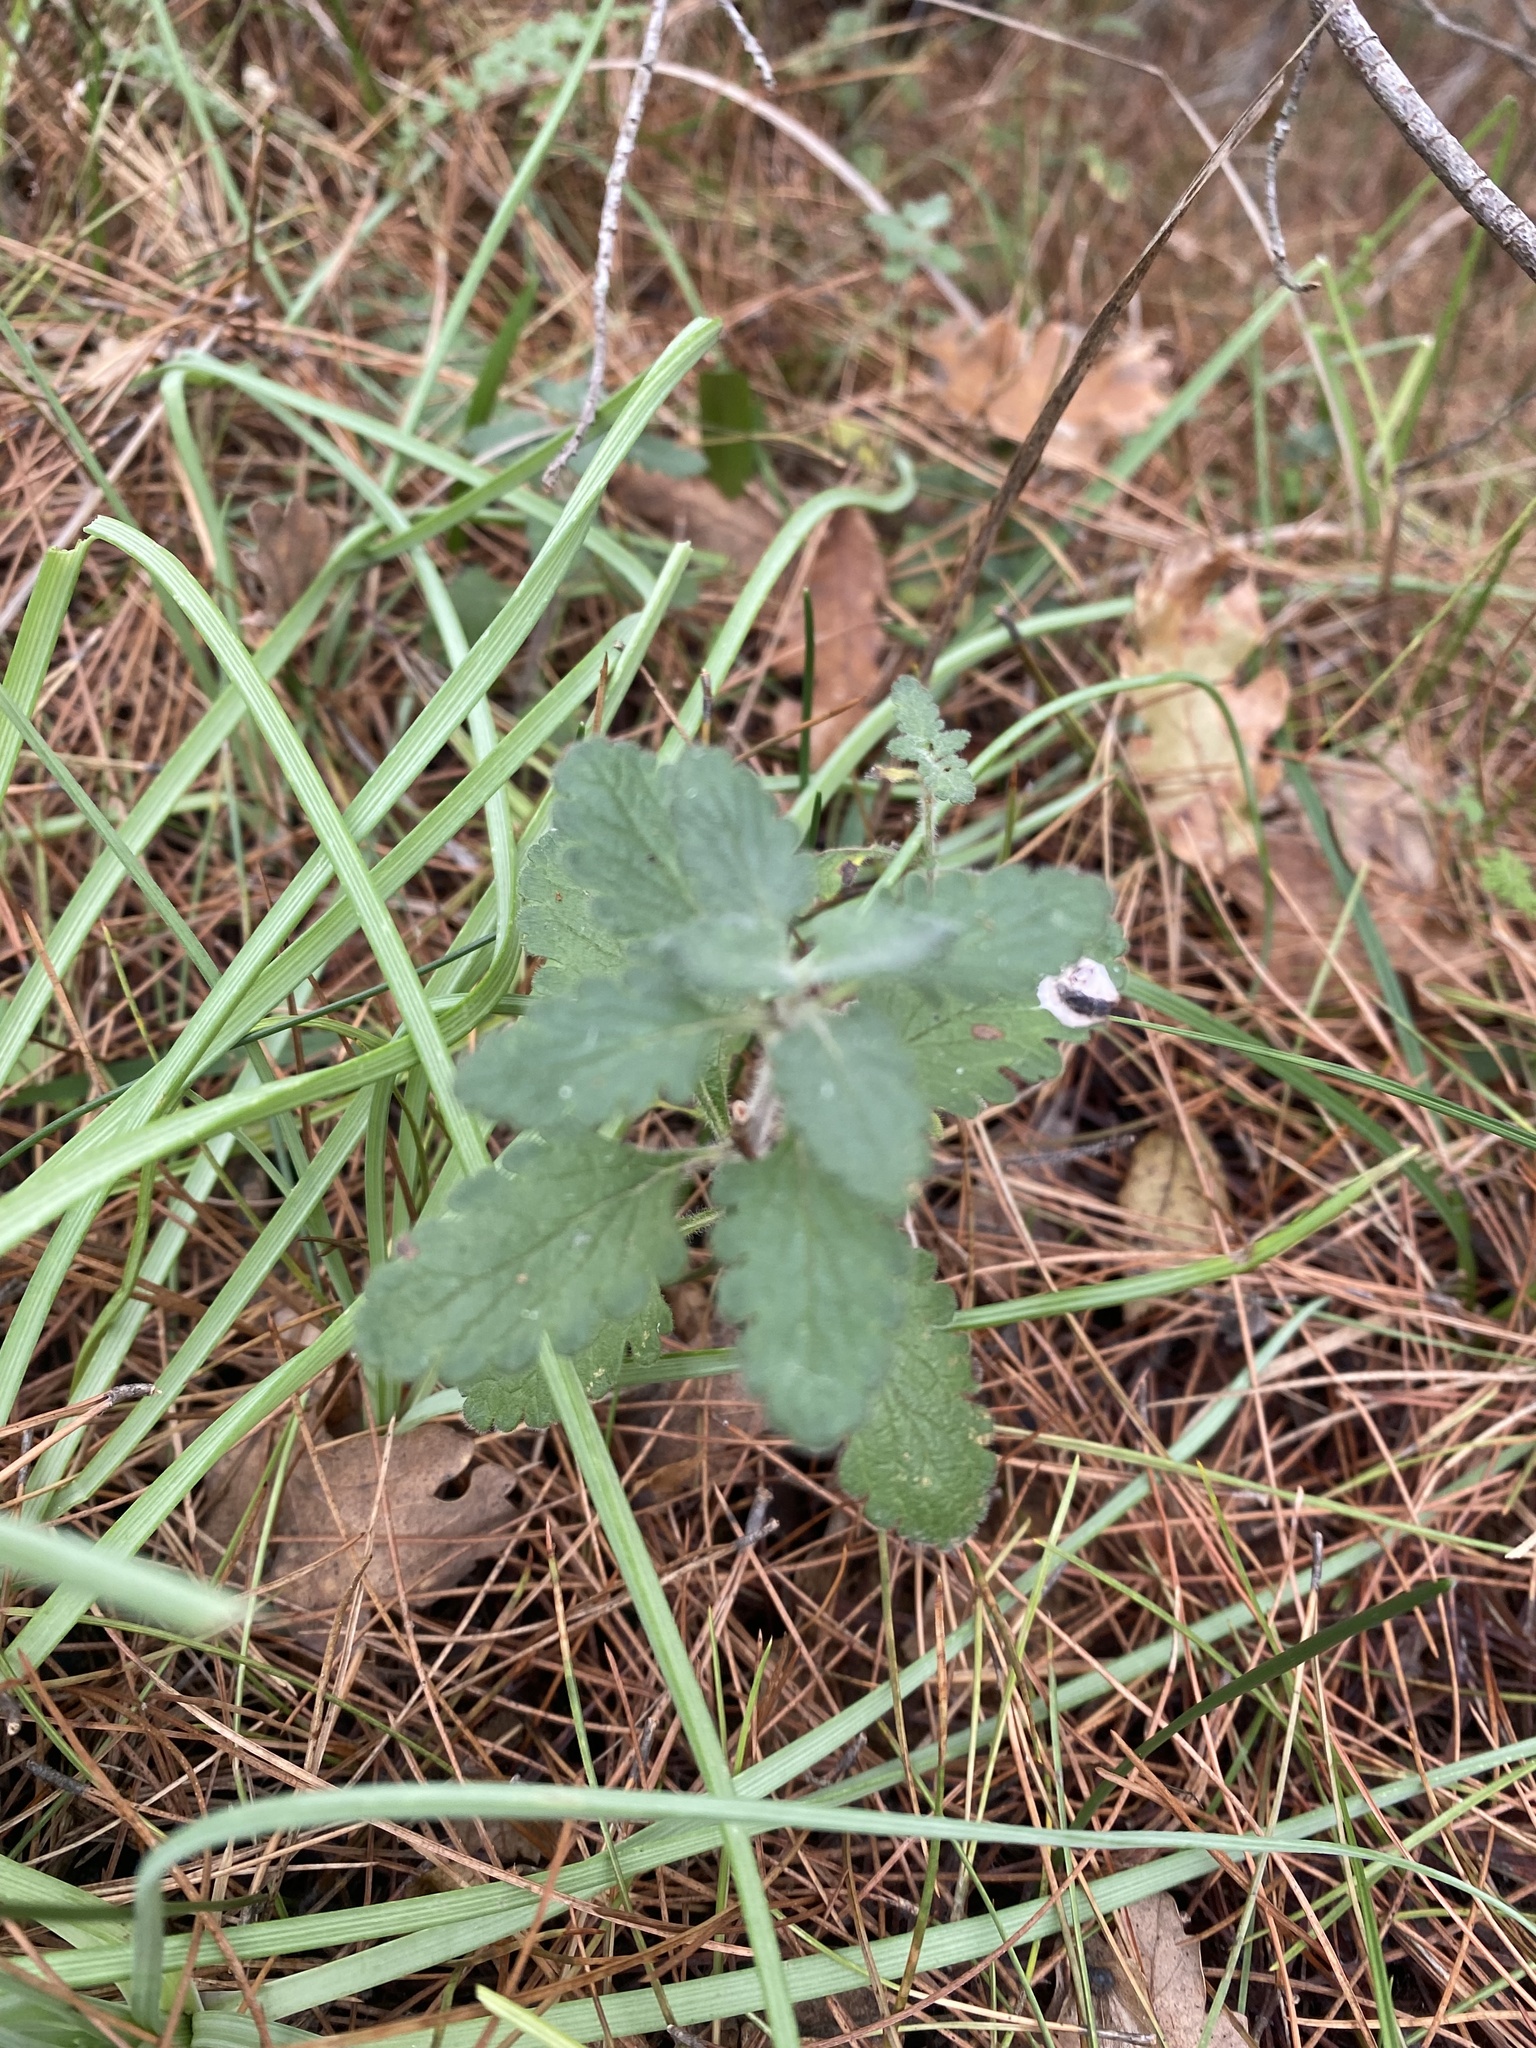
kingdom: Plantae
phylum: Tracheophyta
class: Magnoliopsida
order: Lamiales
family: Lamiaceae
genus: Teucrium
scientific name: Teucrium chamaedrys
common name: Wall germander
